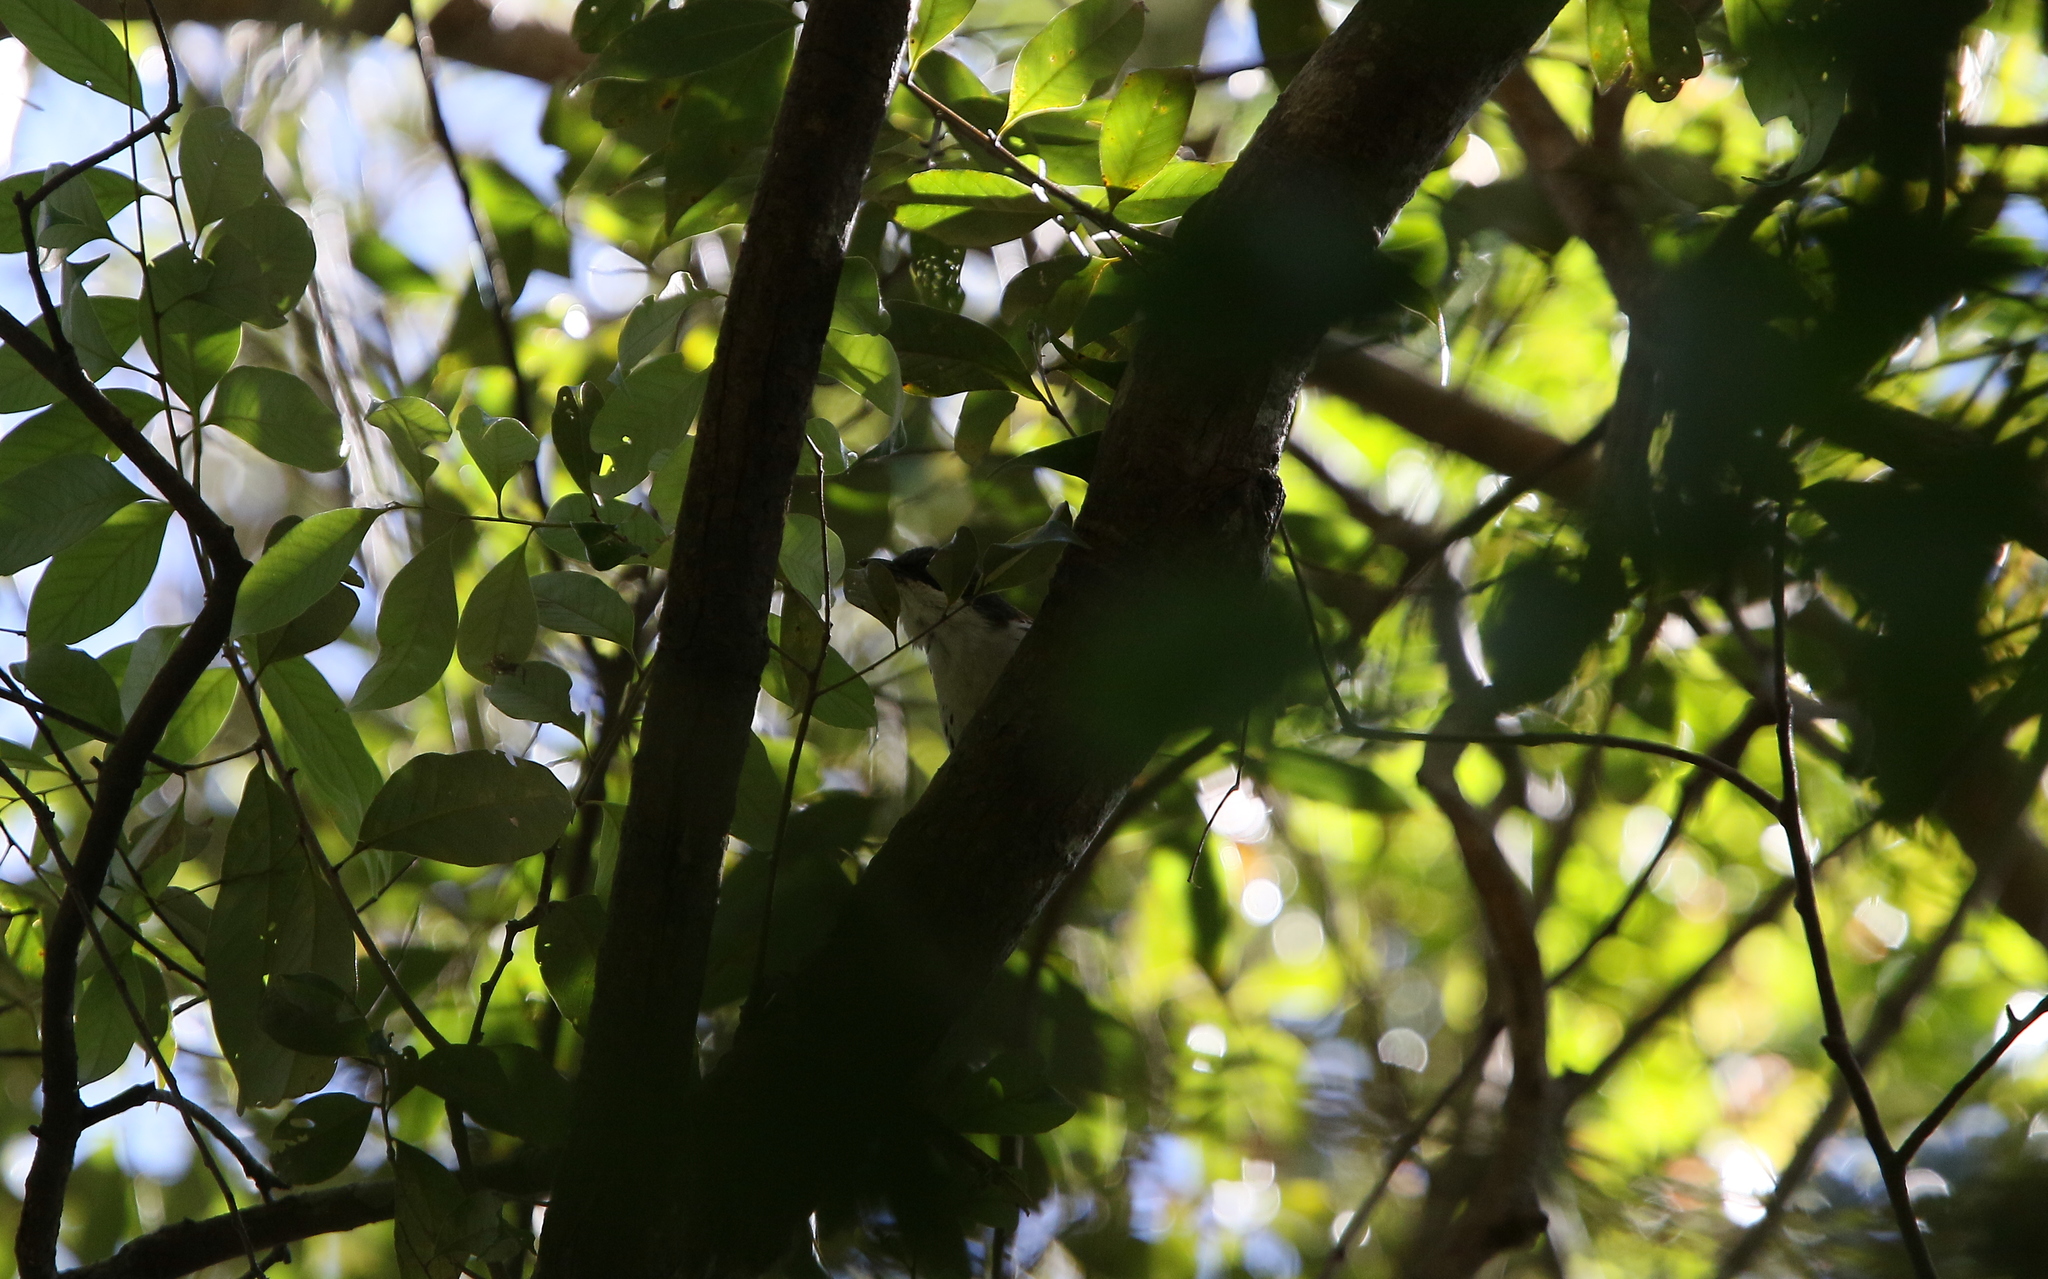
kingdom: Animalia
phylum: Chordata
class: Aves
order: Passeriformes
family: Leiothrichidae
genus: Crocias
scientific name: Crocias langbianis
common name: Grey-crowned crocias
